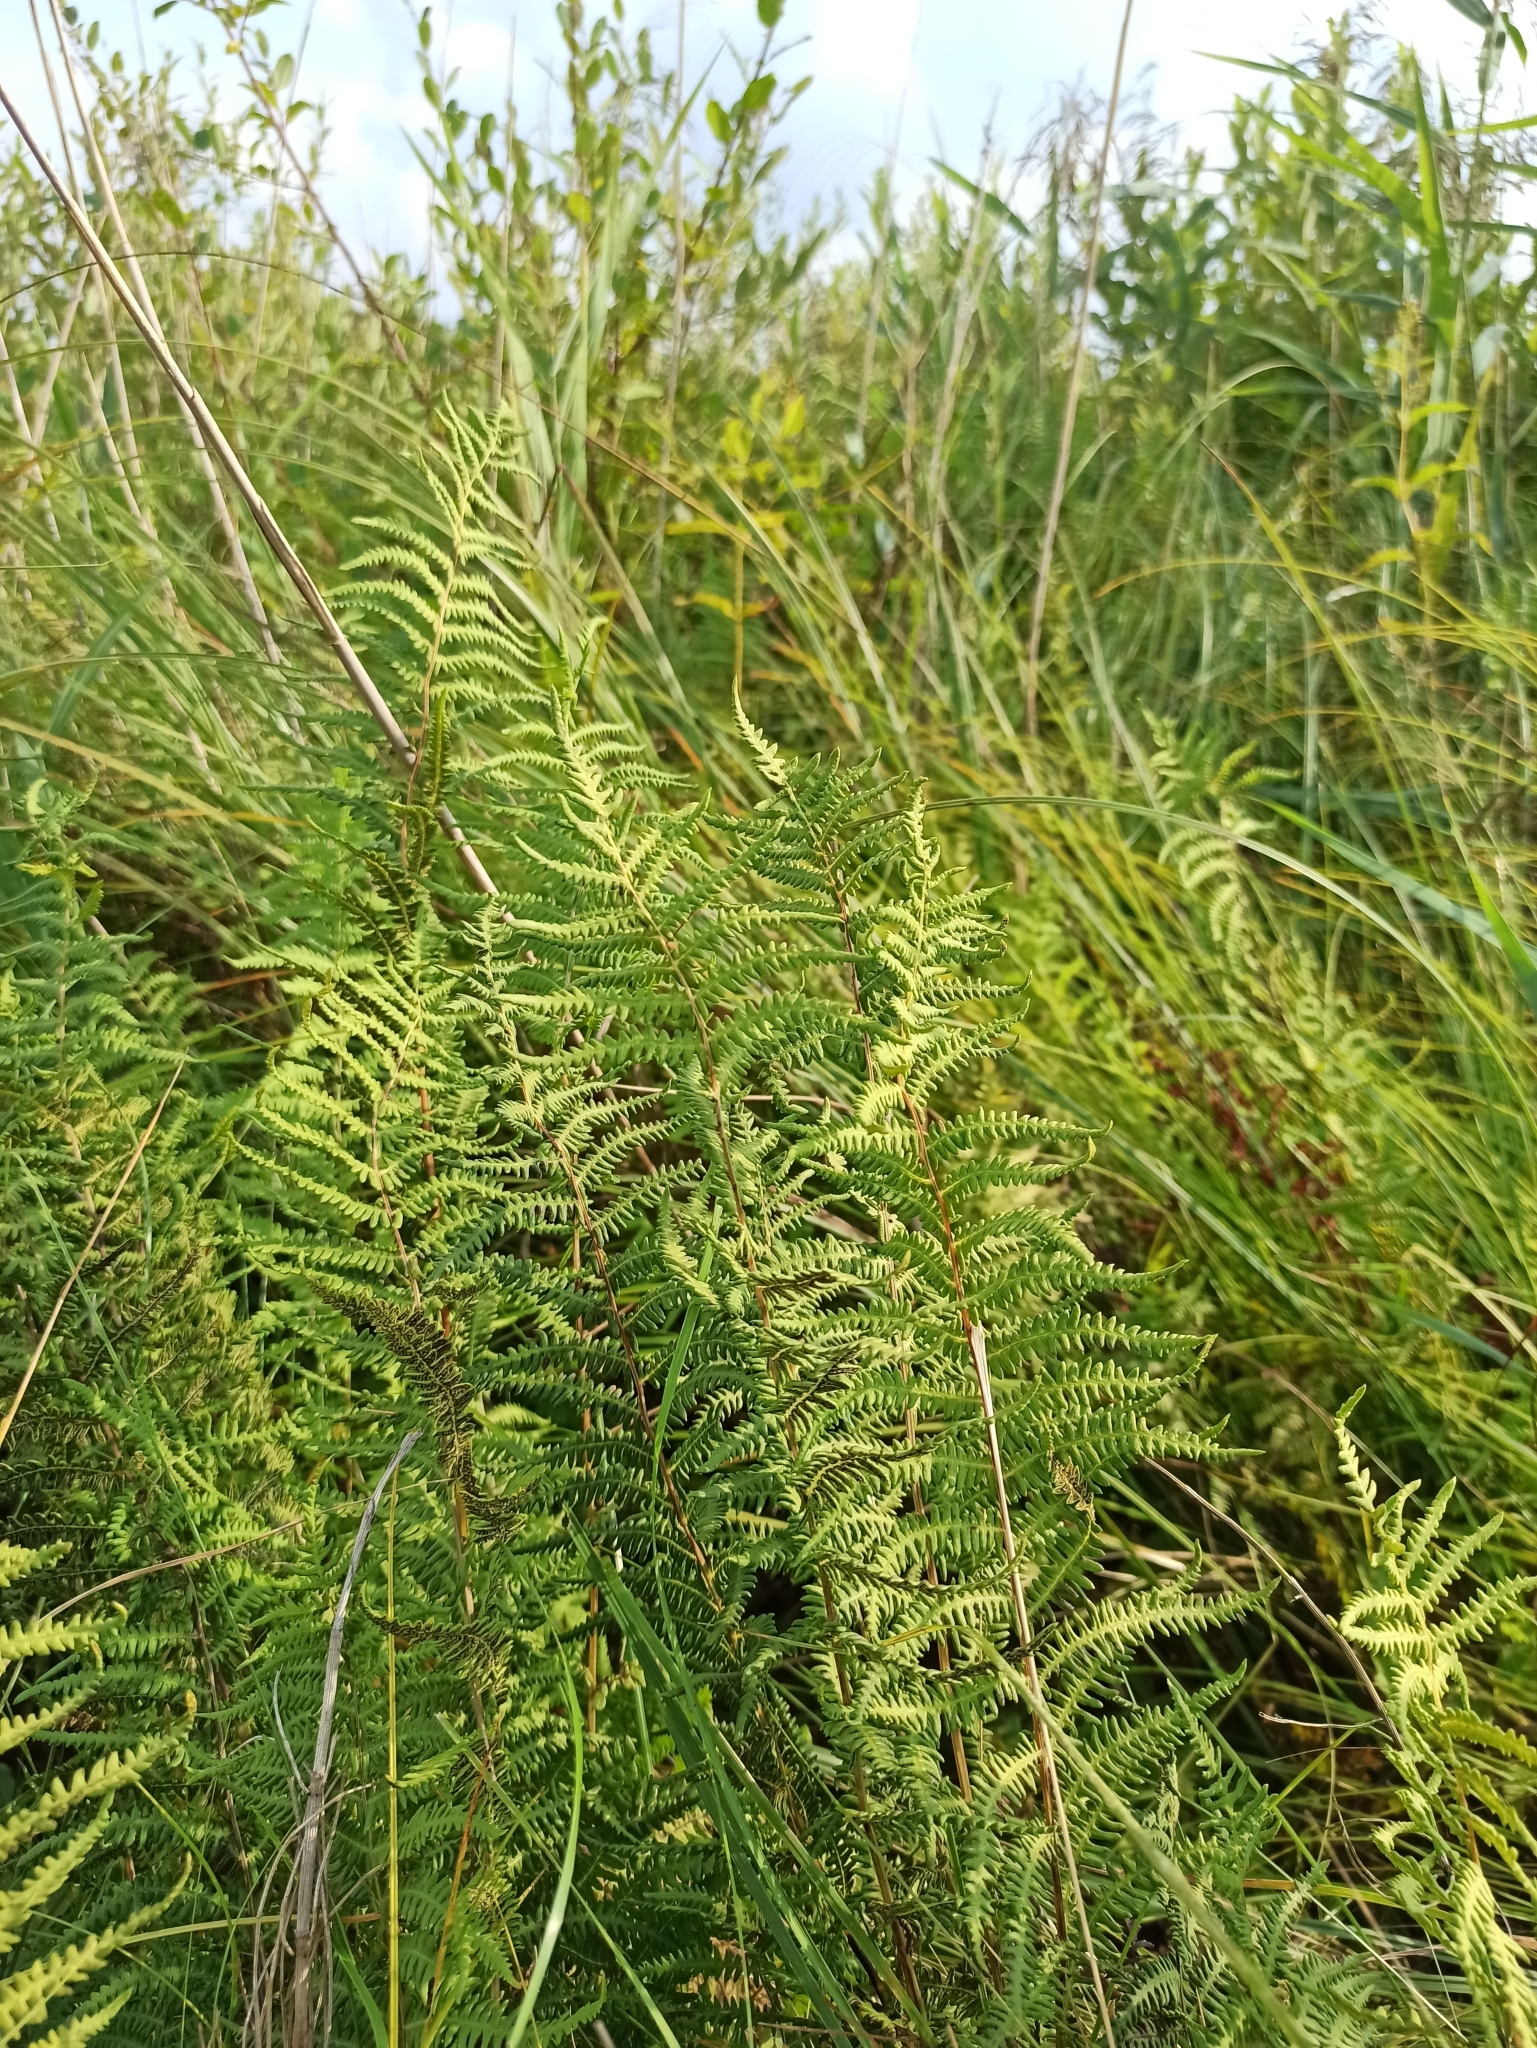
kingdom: Plantae
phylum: Tracheophyta
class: Polypodiopsida
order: Polypodiales
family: Thelypteridaceae
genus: Thelypteris
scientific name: Thelypteris palustris
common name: Marsh fern
